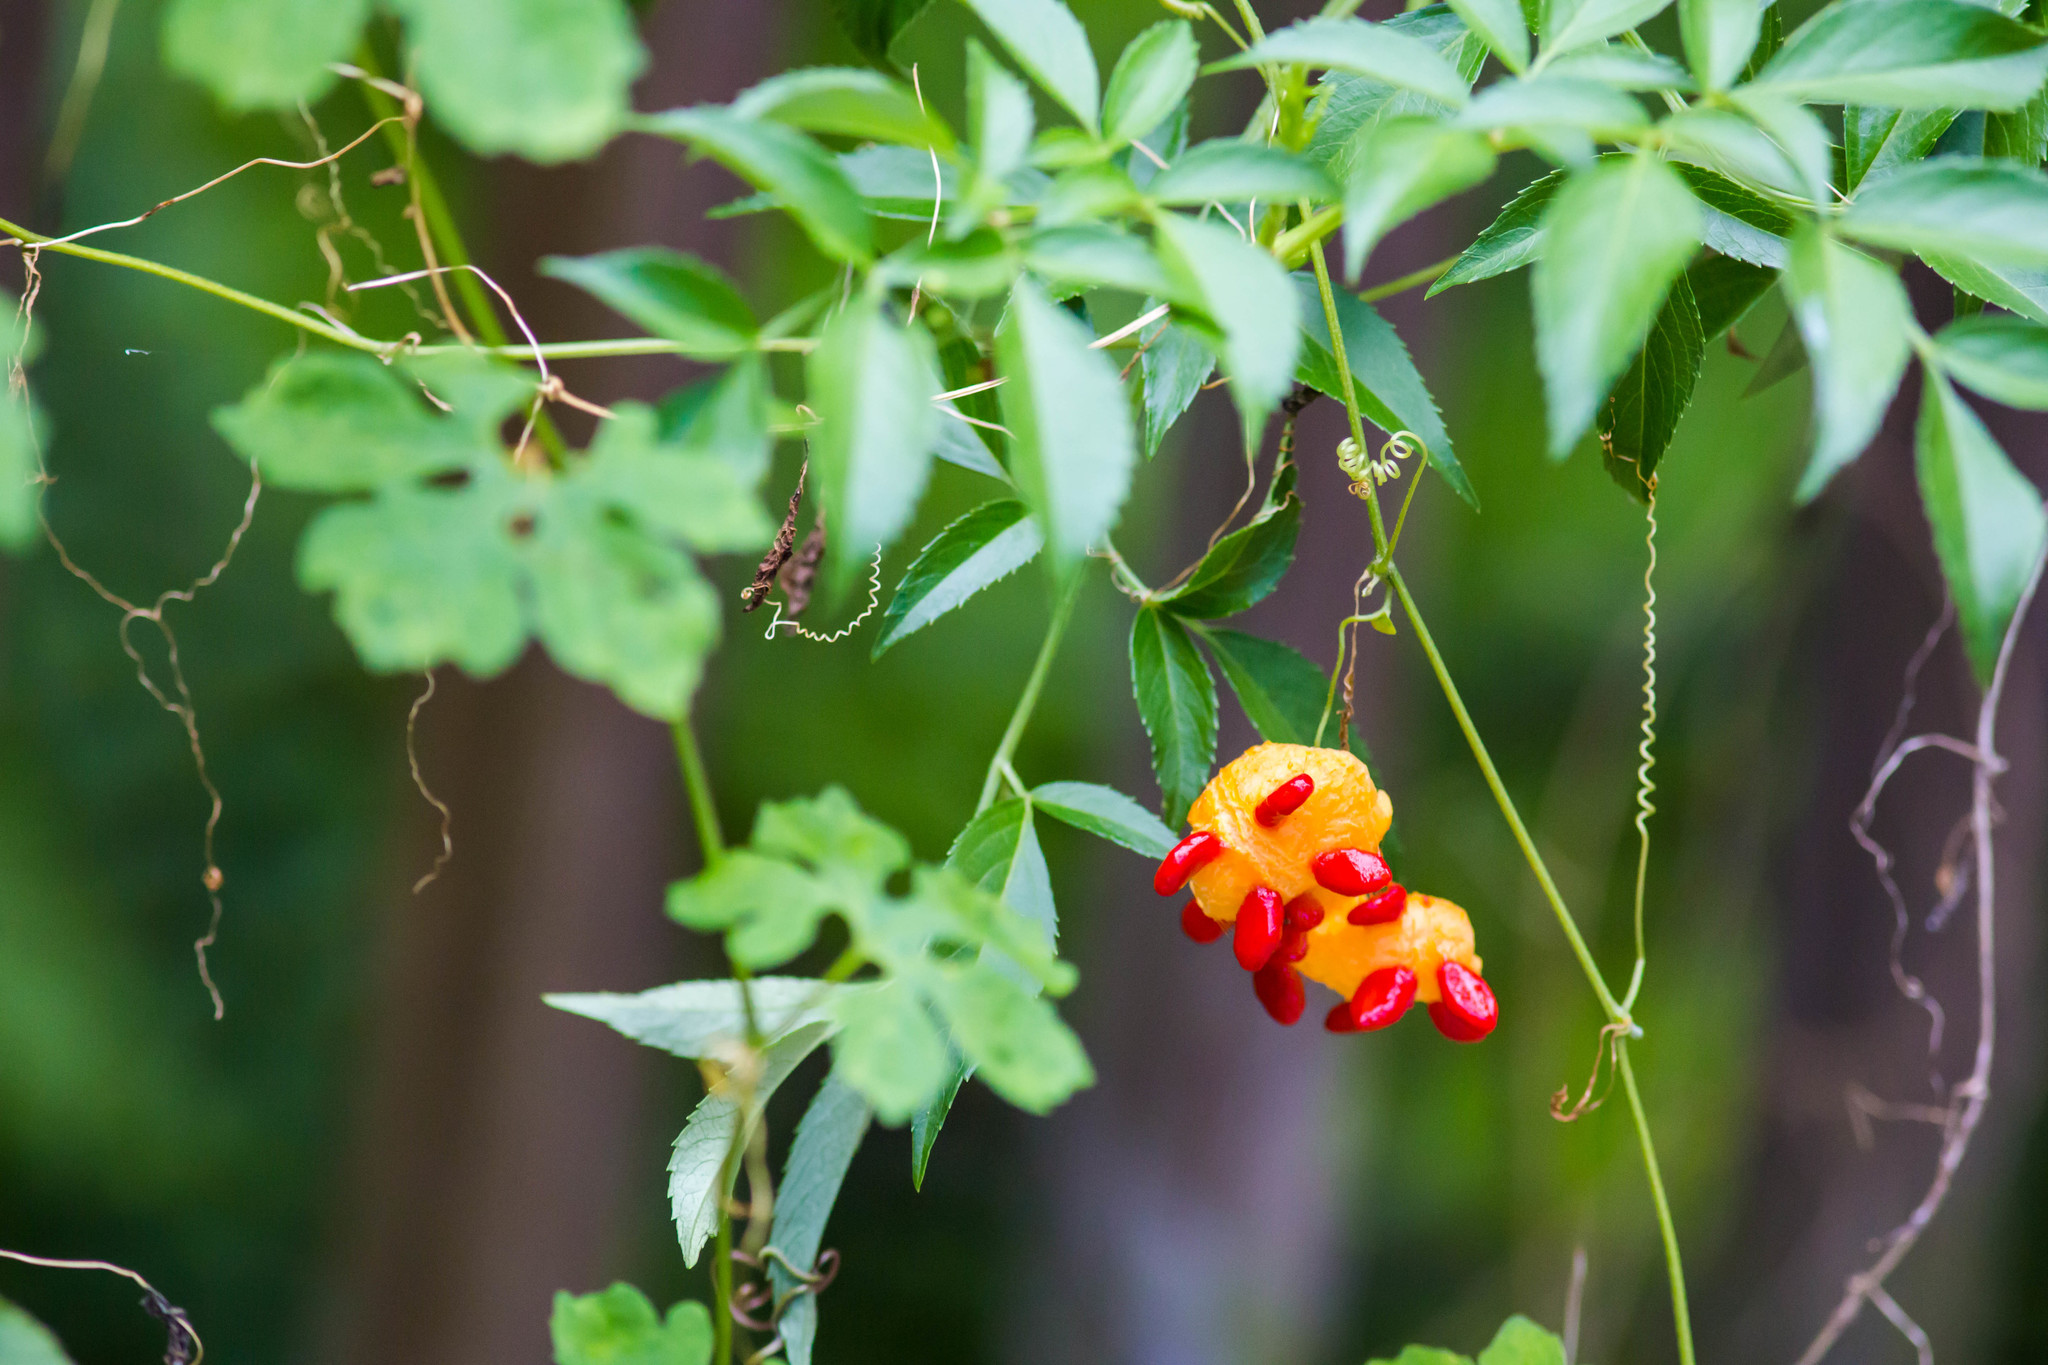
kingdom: Plantae
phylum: Tracheophyta
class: Magnoliopsida
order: Cucurbitales
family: Cucurbitaceae
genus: Momordica
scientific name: Momordica charantia
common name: Balsampear
